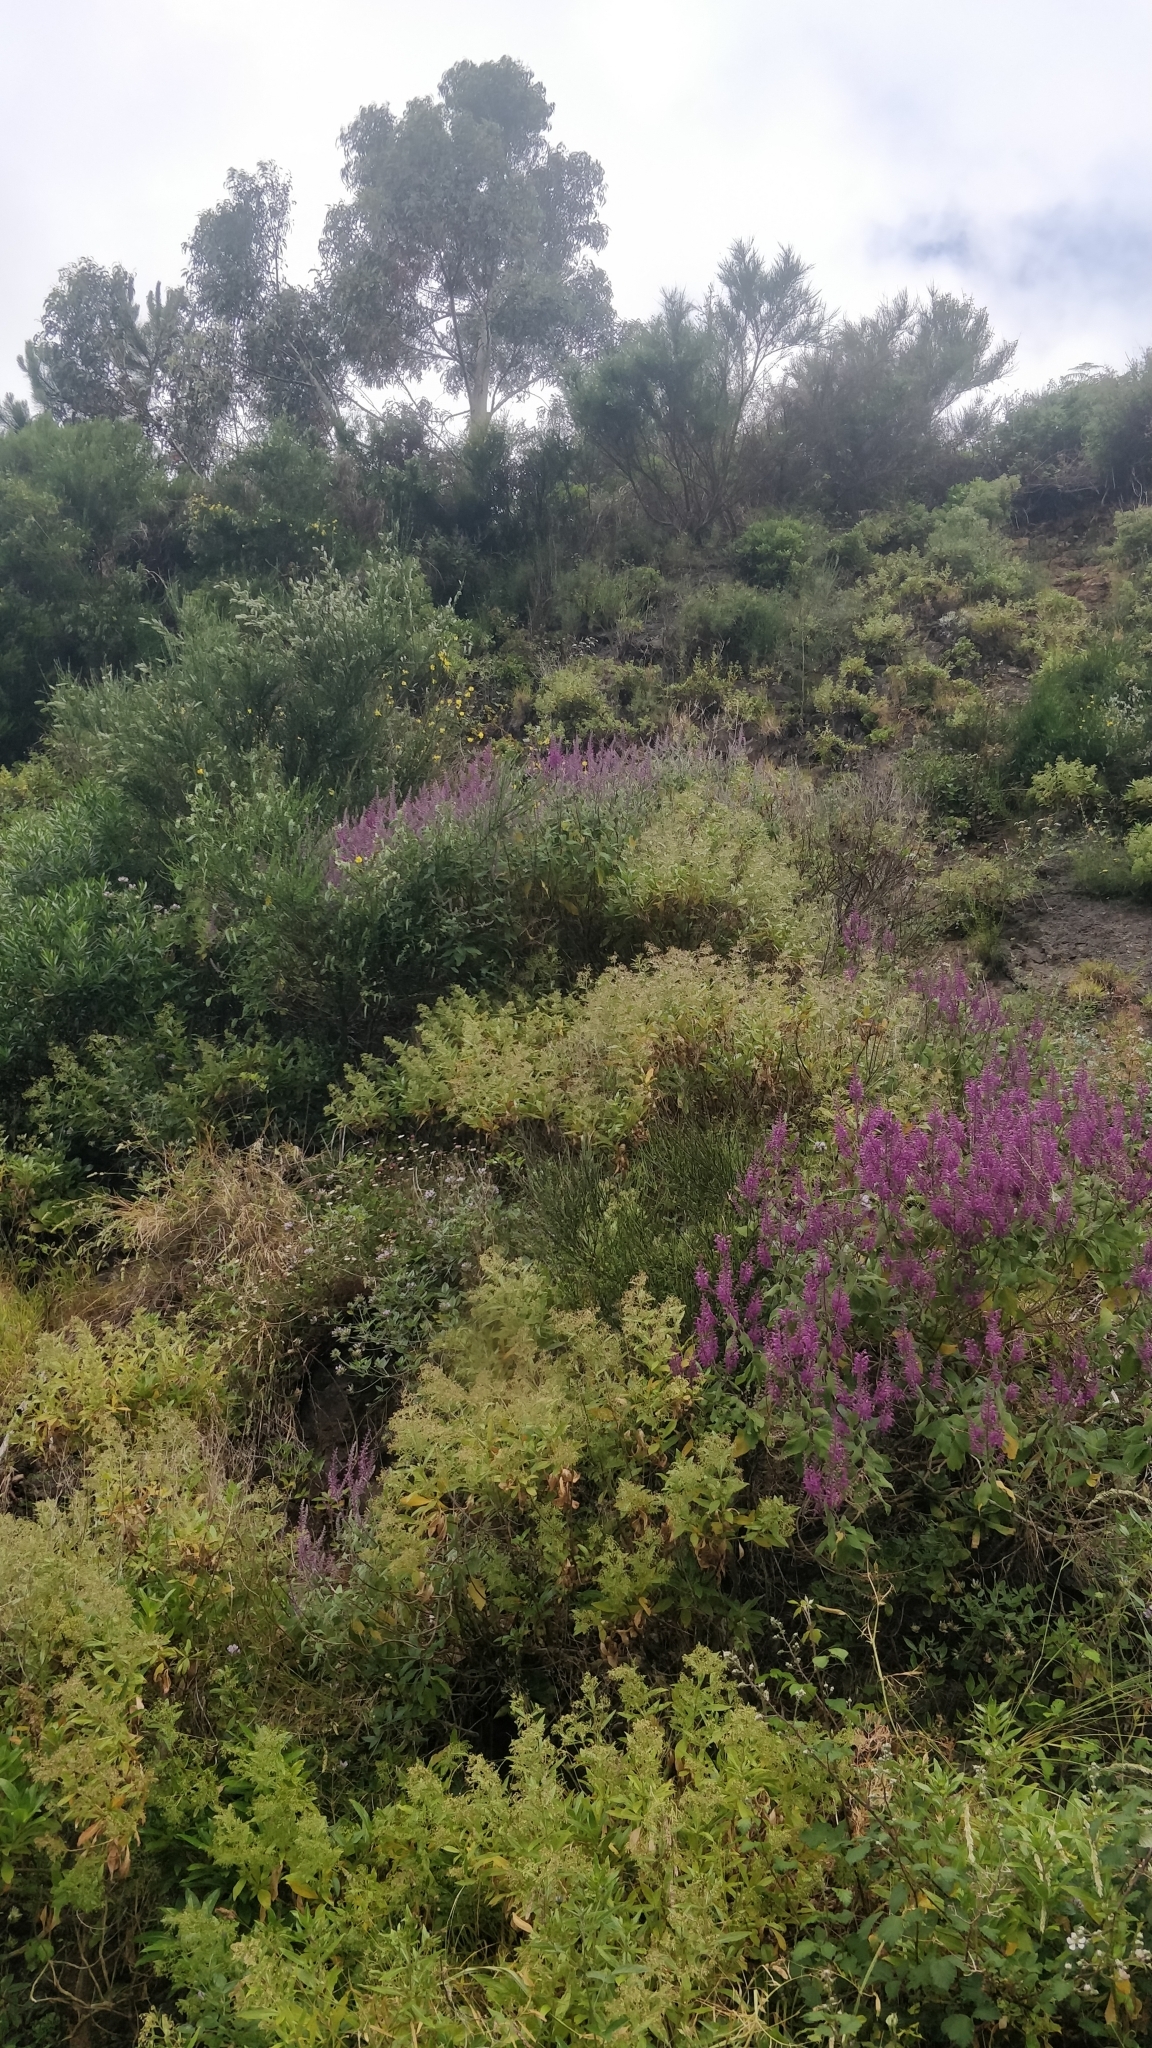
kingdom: Plantae
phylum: Tracheophyta
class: Magnoliopsida
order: Lamiales
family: Lamiaceae
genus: Teucrium
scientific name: Teucrium betonicum
